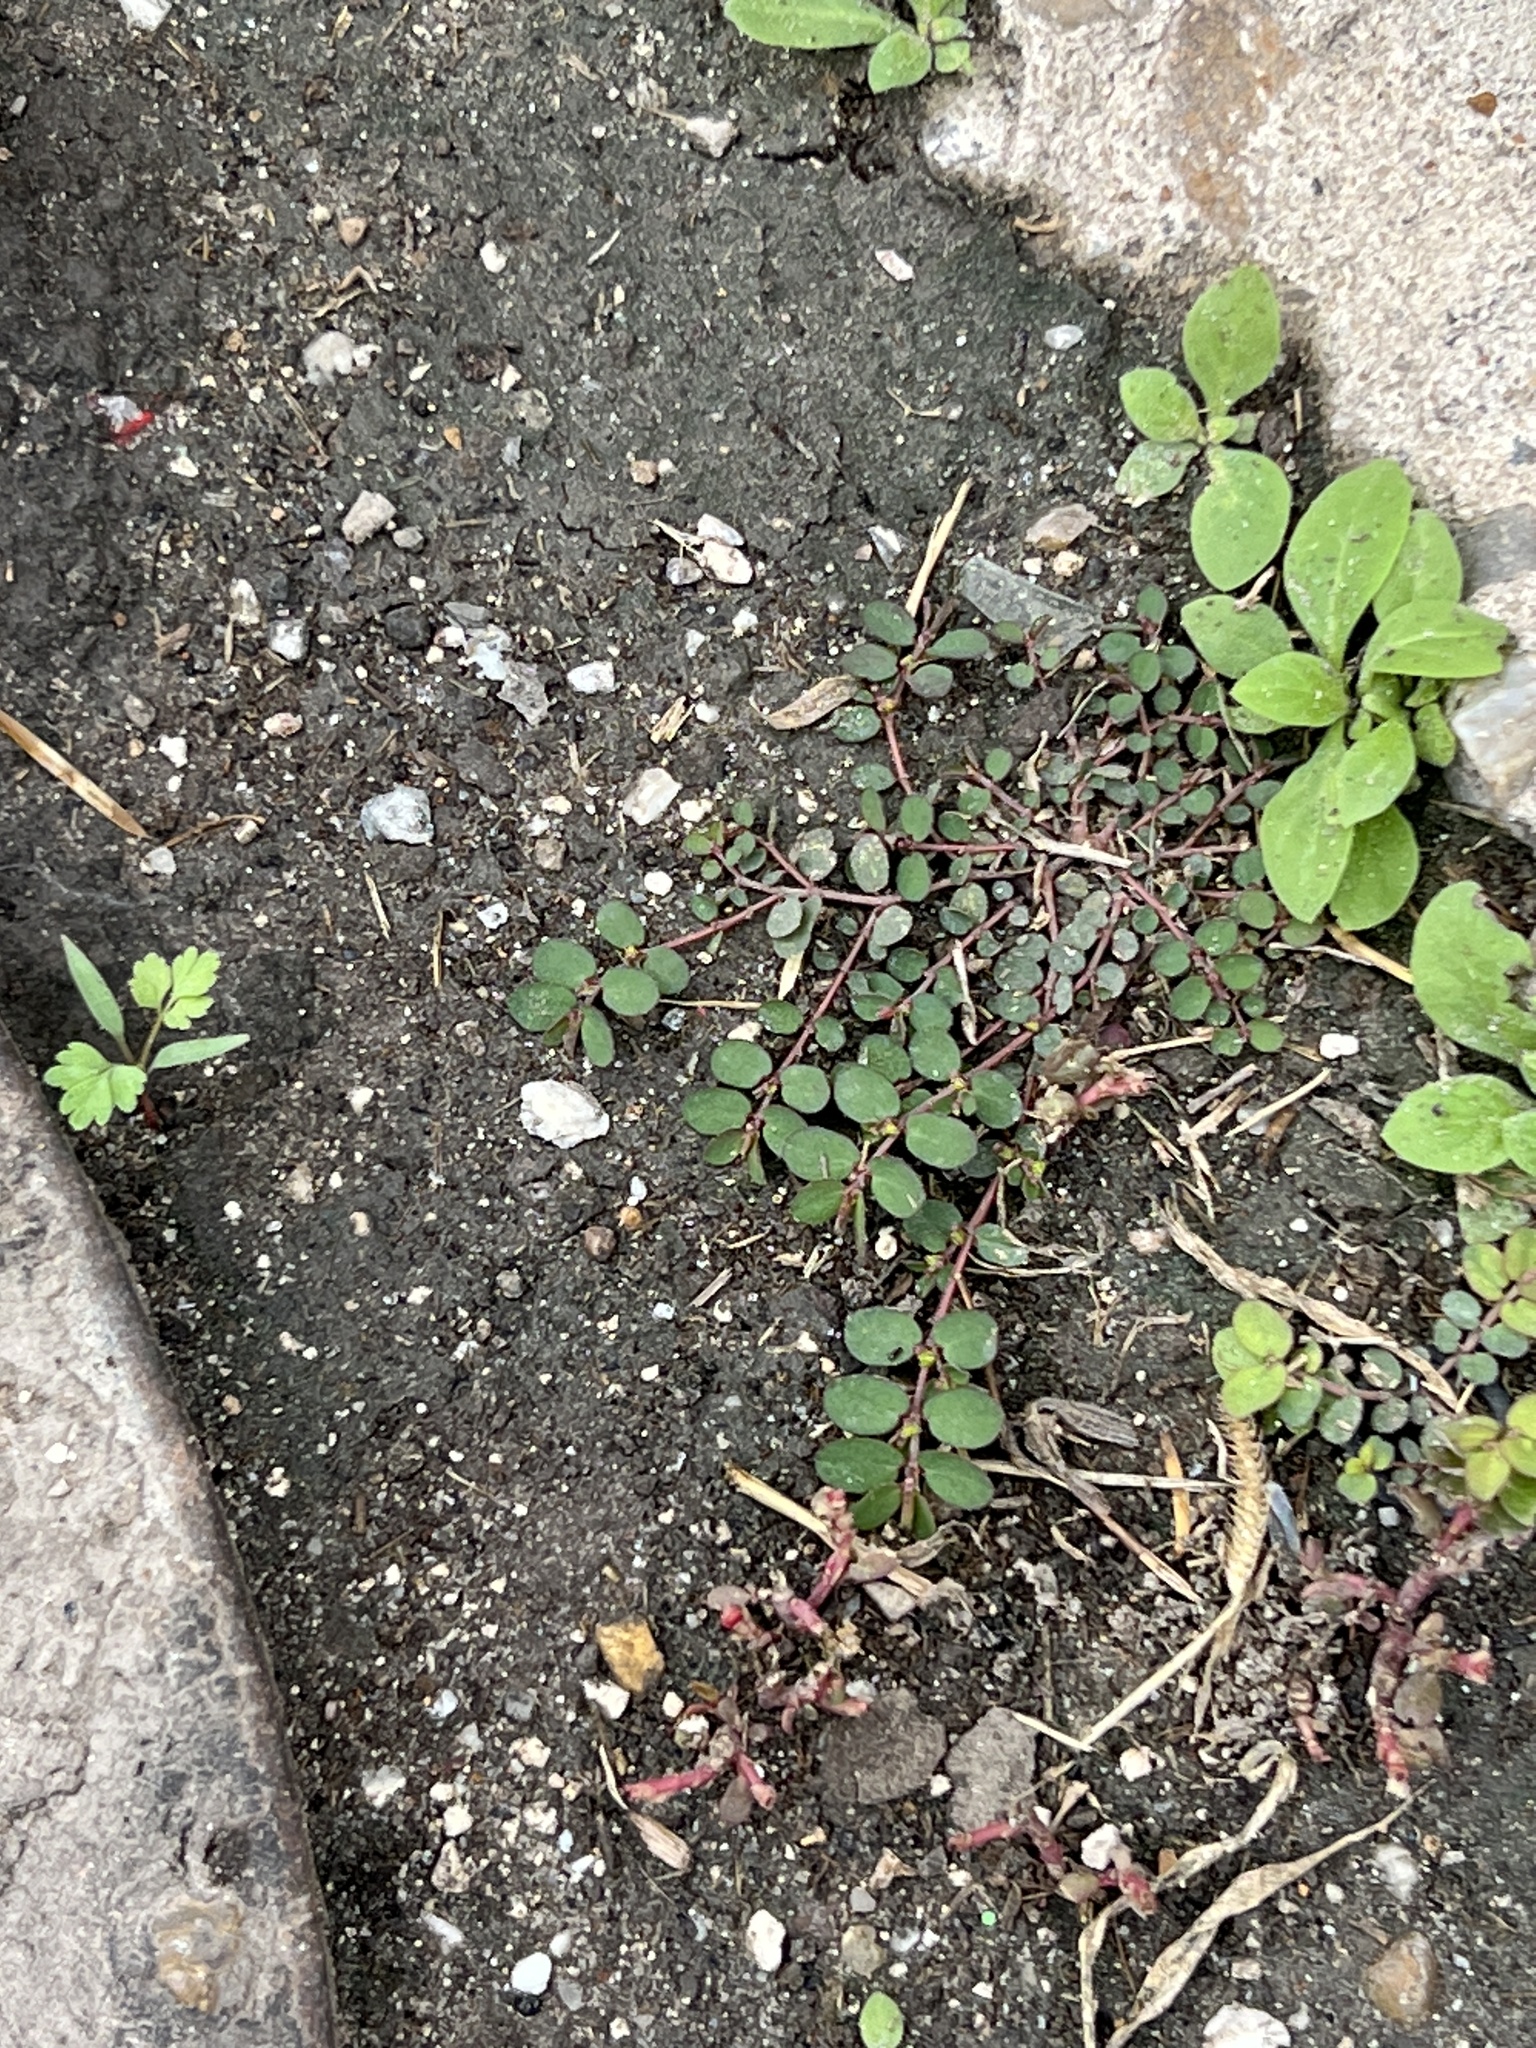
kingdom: Plantae
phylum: Tracheophyta
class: Magnoliopsida
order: Malpighiales
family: Euphorbiaceae
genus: Euphorbia
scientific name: Euphorbia prostrata
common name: Prostrate sandmat
